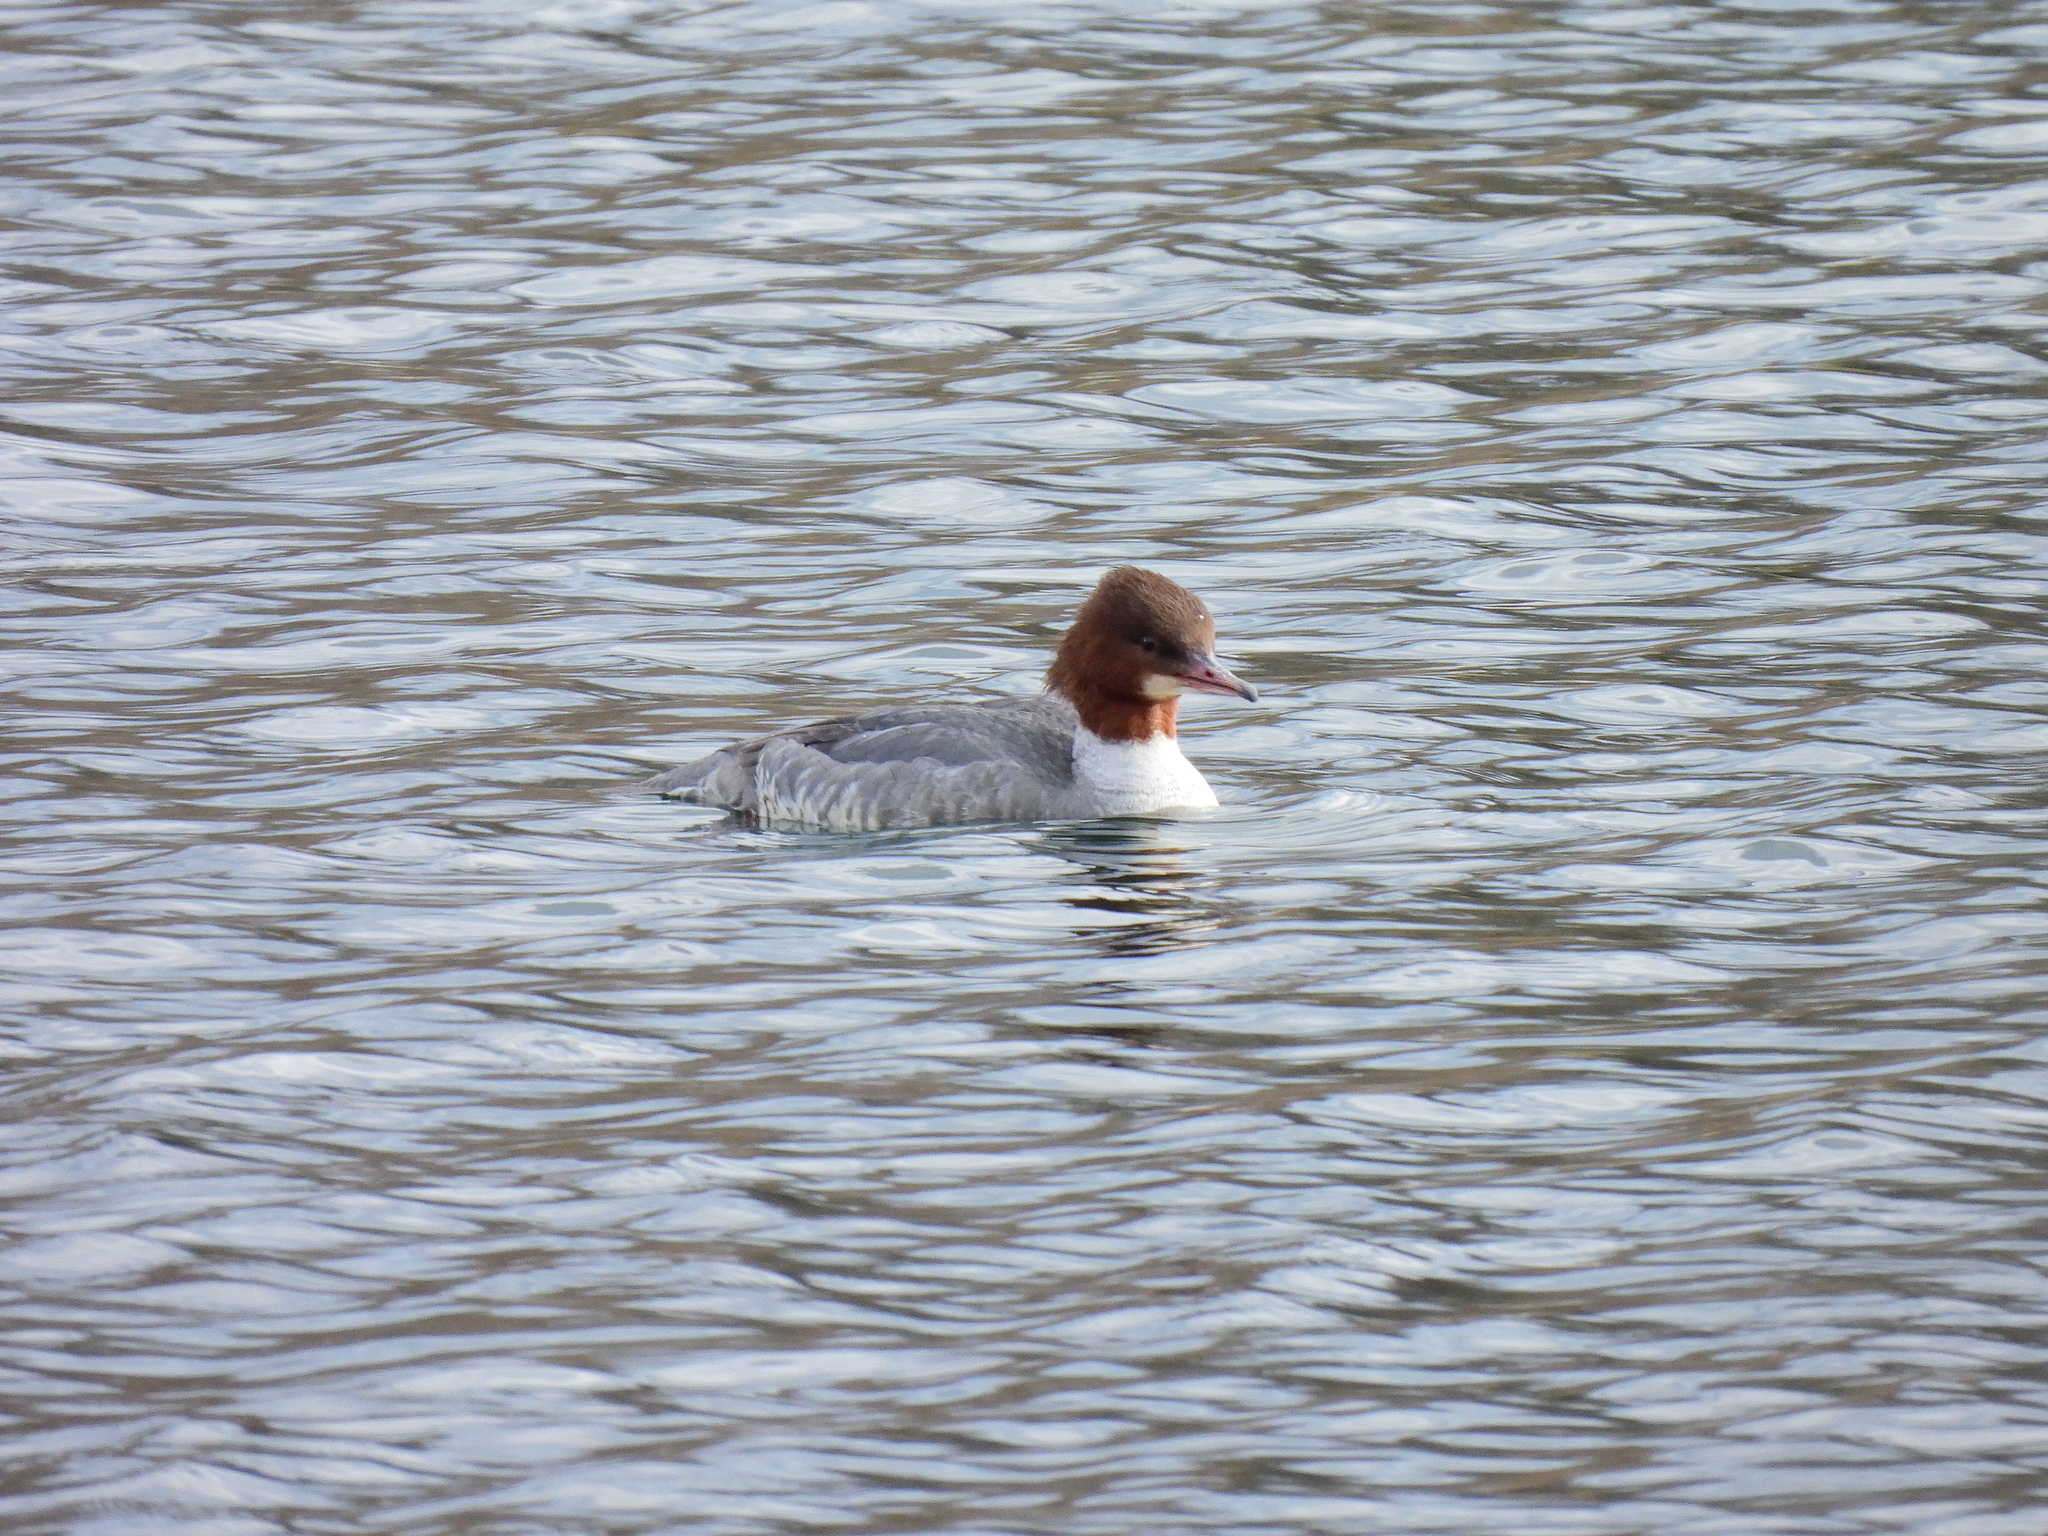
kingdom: Animalia
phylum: Chordata
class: Aves
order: Anseriformes
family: Anatidae
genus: Mergus
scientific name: Mergus merganser
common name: Common merganser
